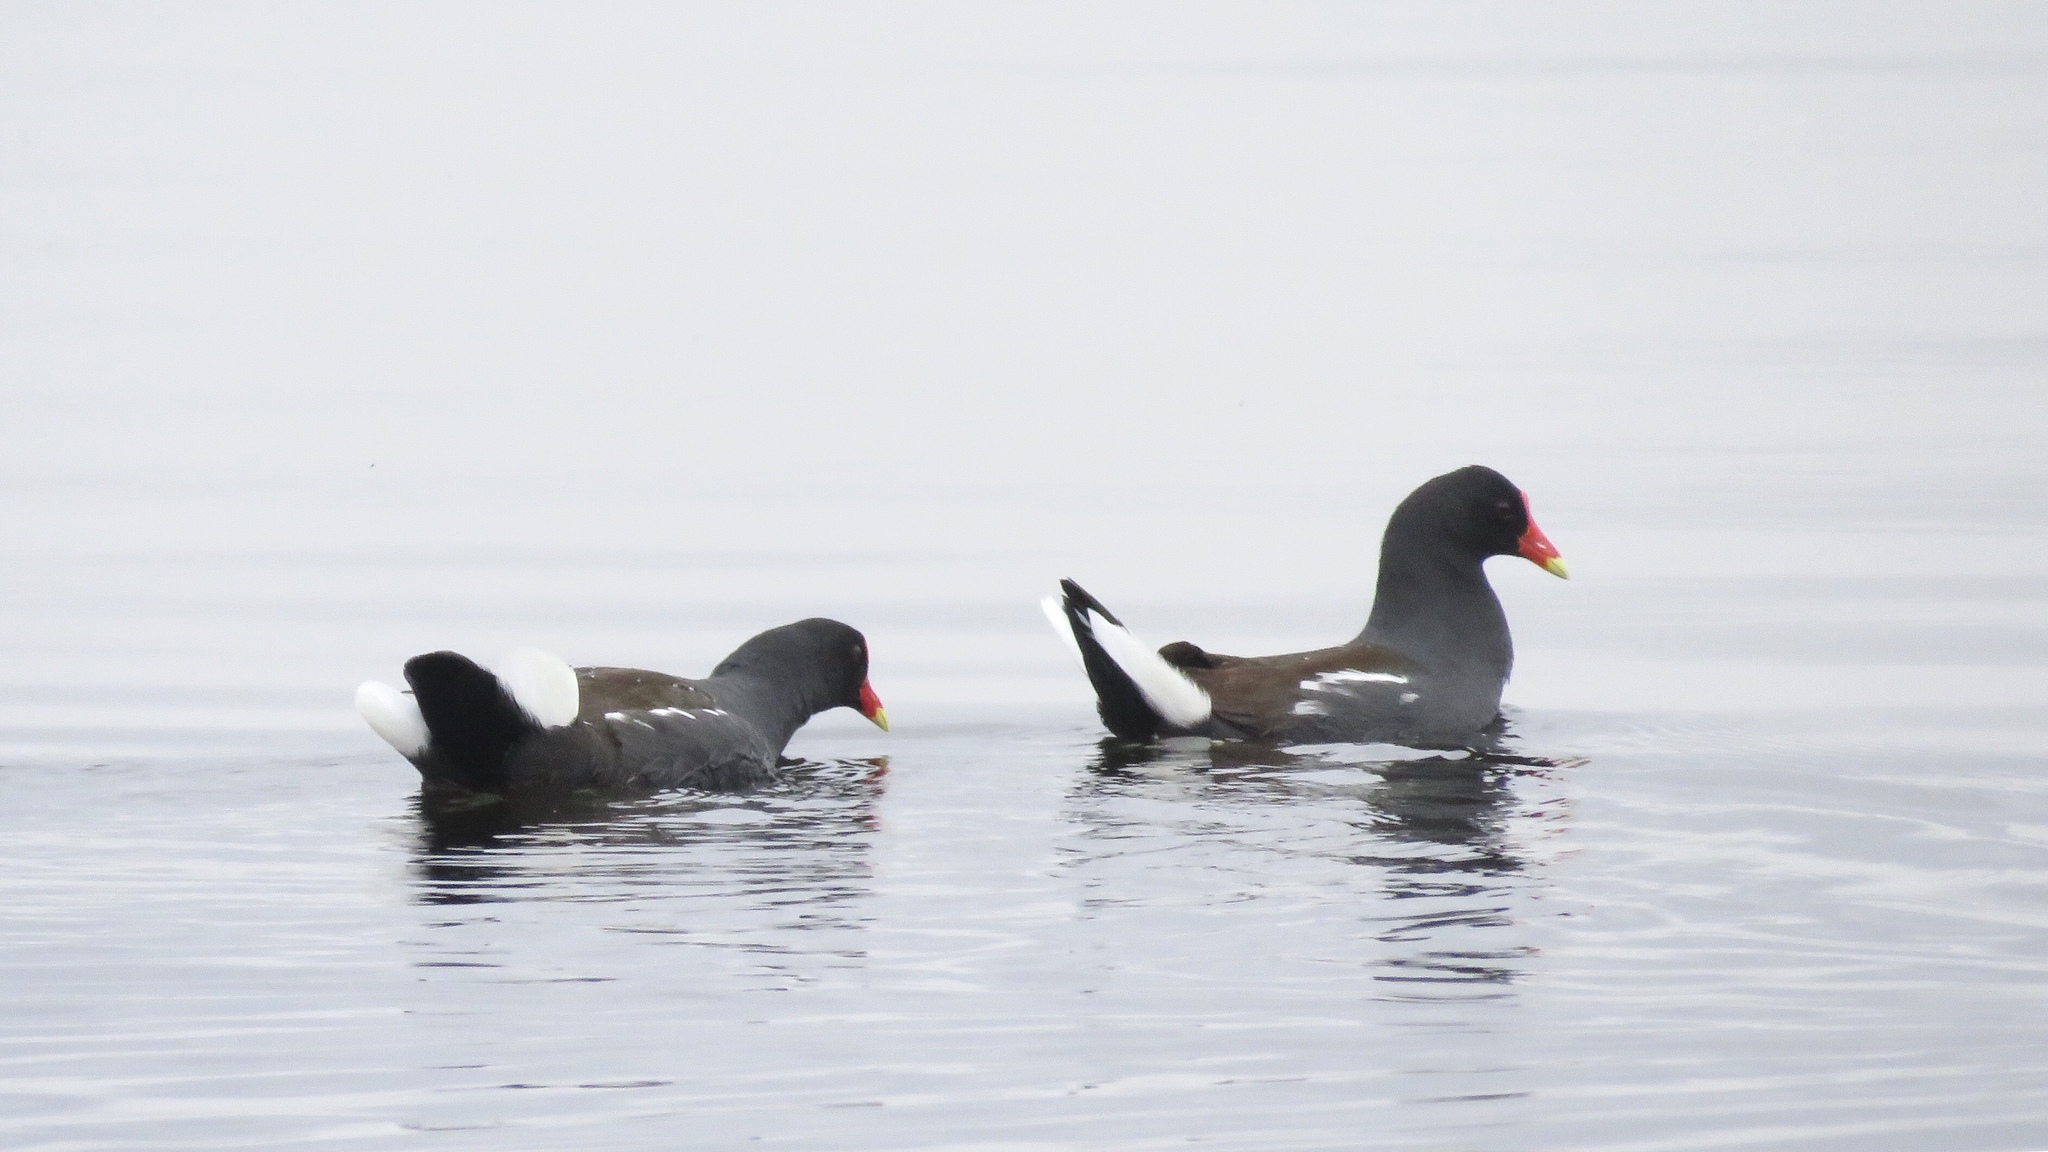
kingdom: Animalia
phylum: Chordata
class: Aves
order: Gruiformes
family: Rallidae
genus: Gallinula
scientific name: Gallinula chloropus
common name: Common moorhen
